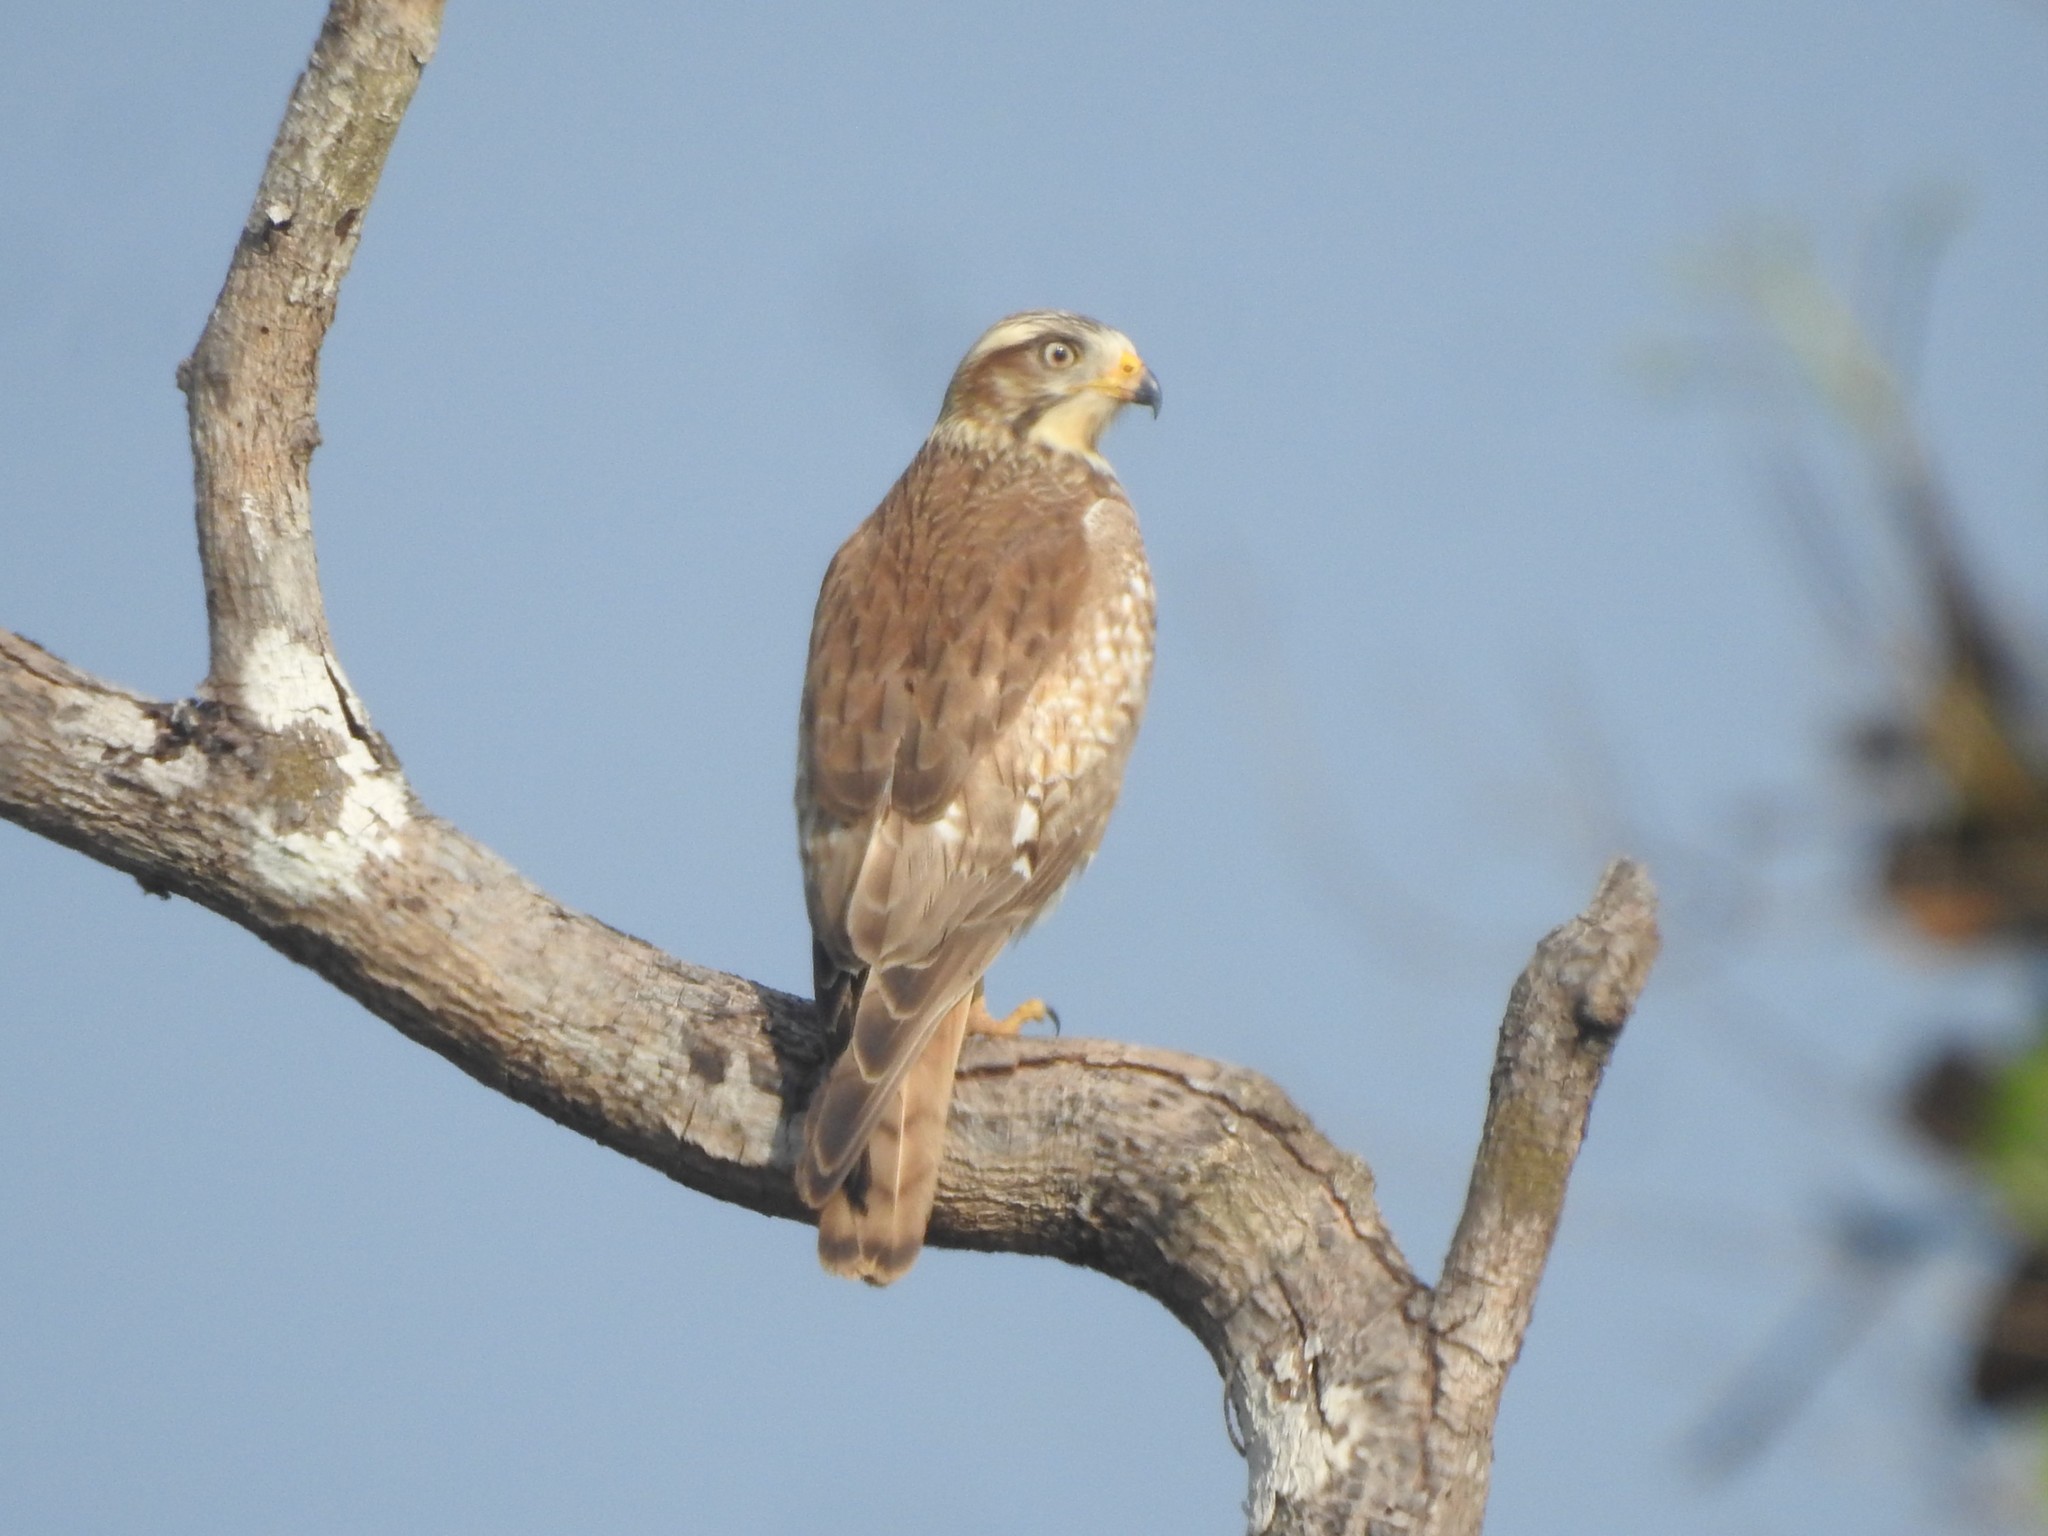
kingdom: Animalia
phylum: Chordata
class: Aves
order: Accipitriformes
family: Accipitridae
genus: Butastur
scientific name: Butastur teesa
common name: White-eyed buzzard
